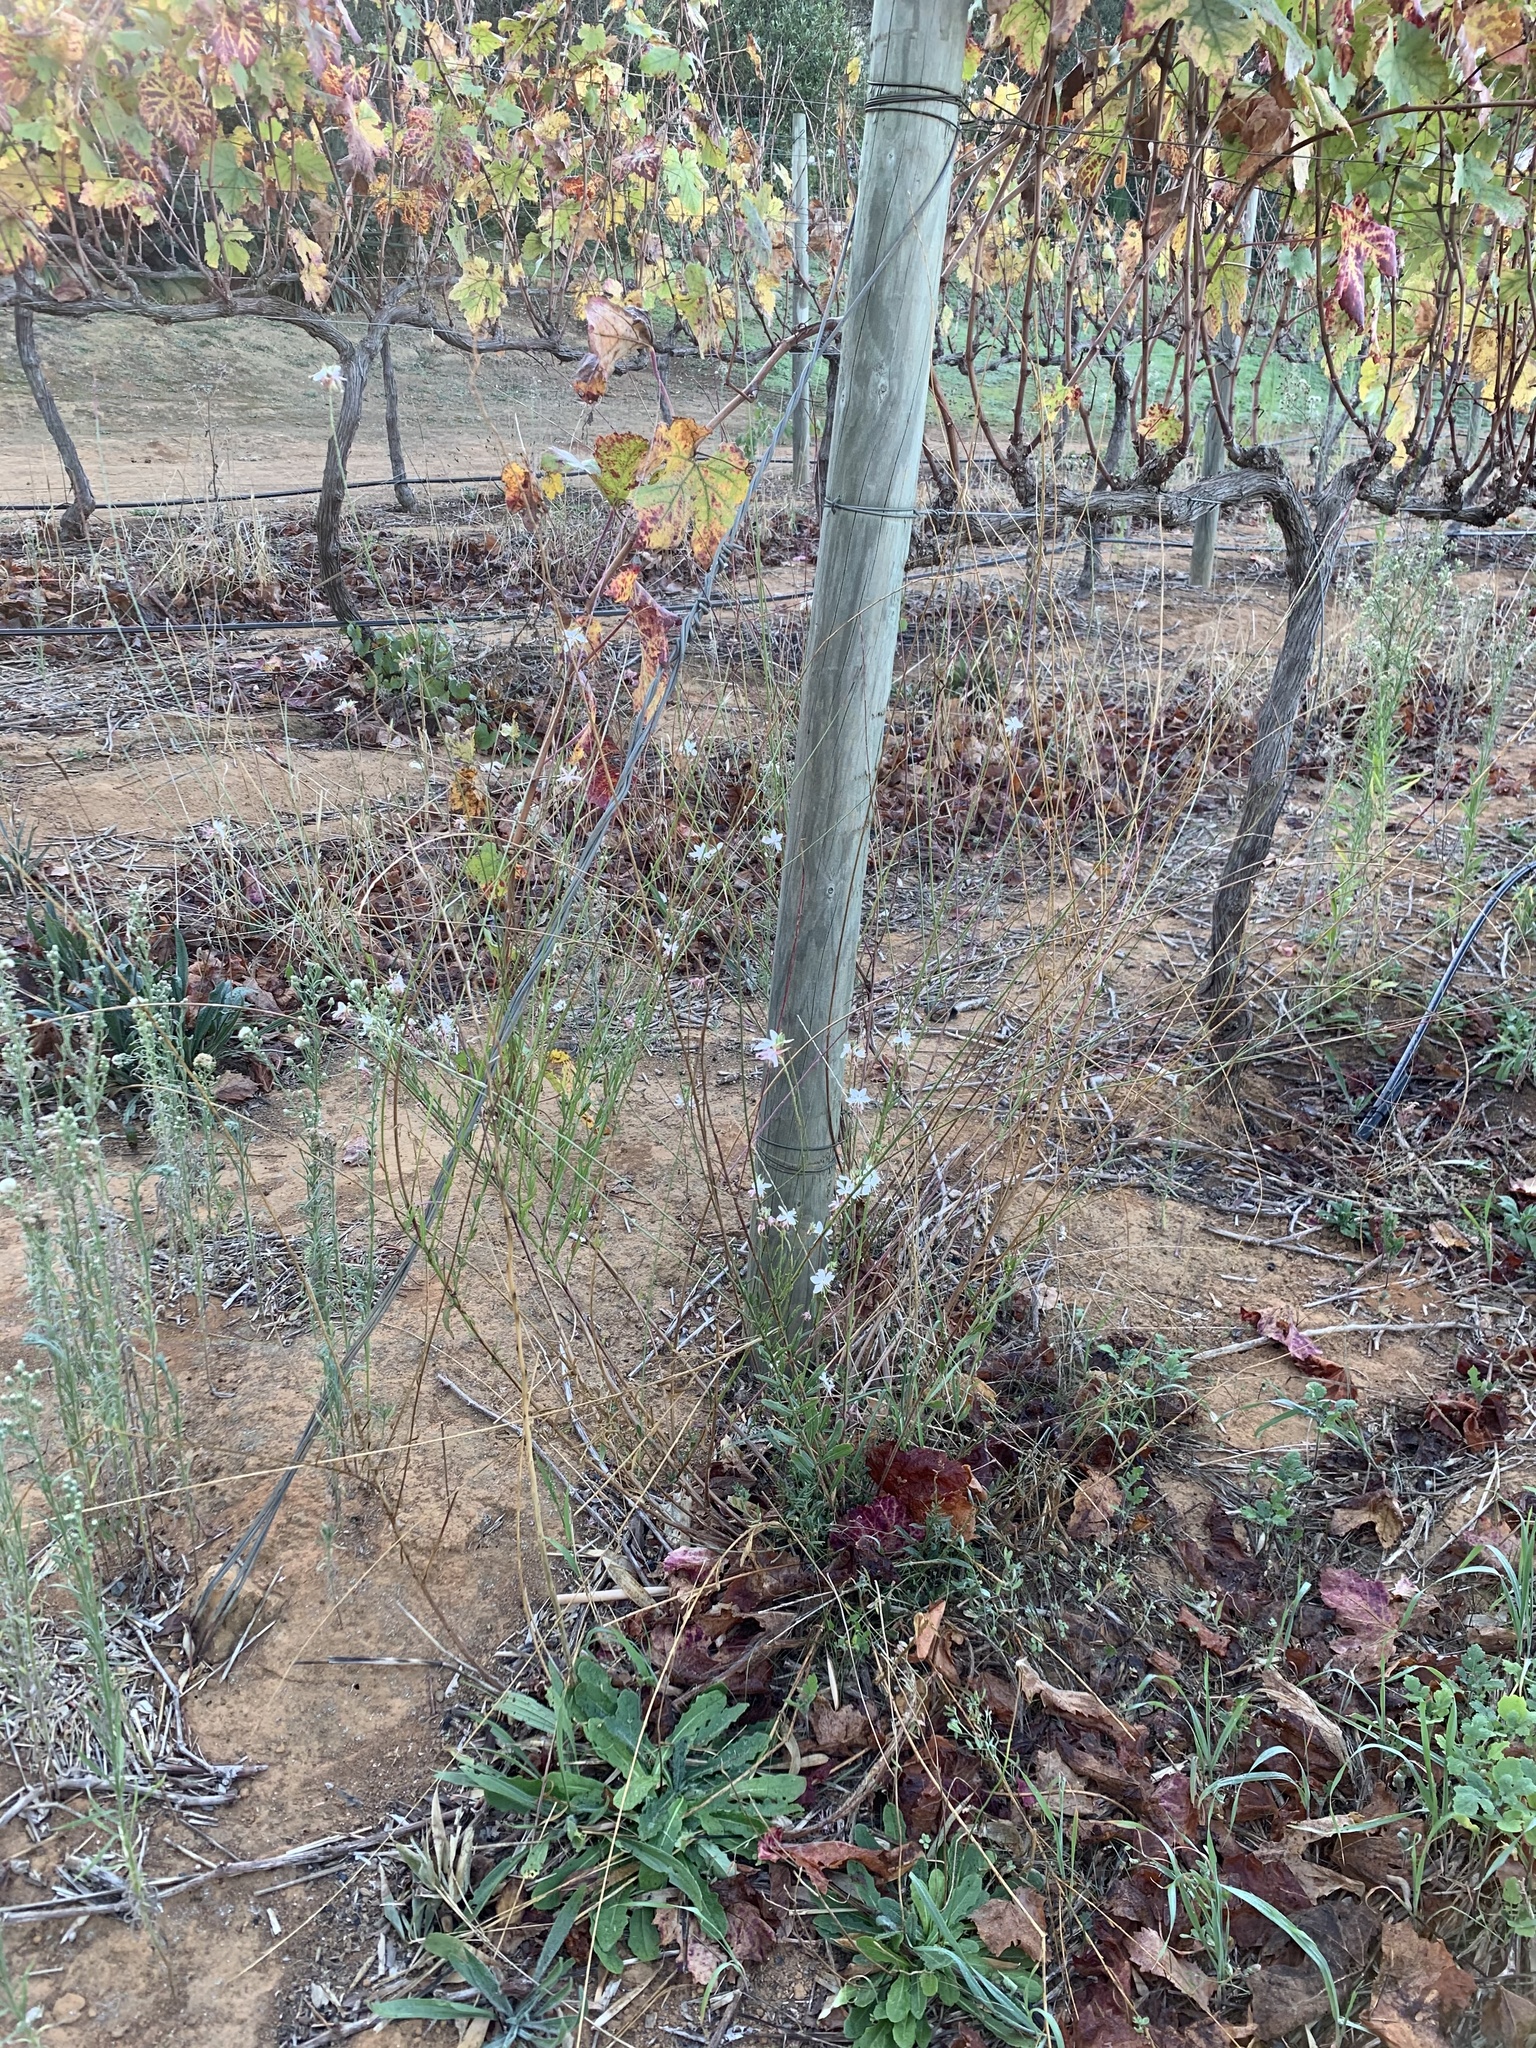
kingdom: Plantae
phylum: Tracheophyta
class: Magnoliopsida
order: Myrtales
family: Onagraceae
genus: Oenothera
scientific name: Oenothera lindheimeri
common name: Lindheimer's beeblossom
